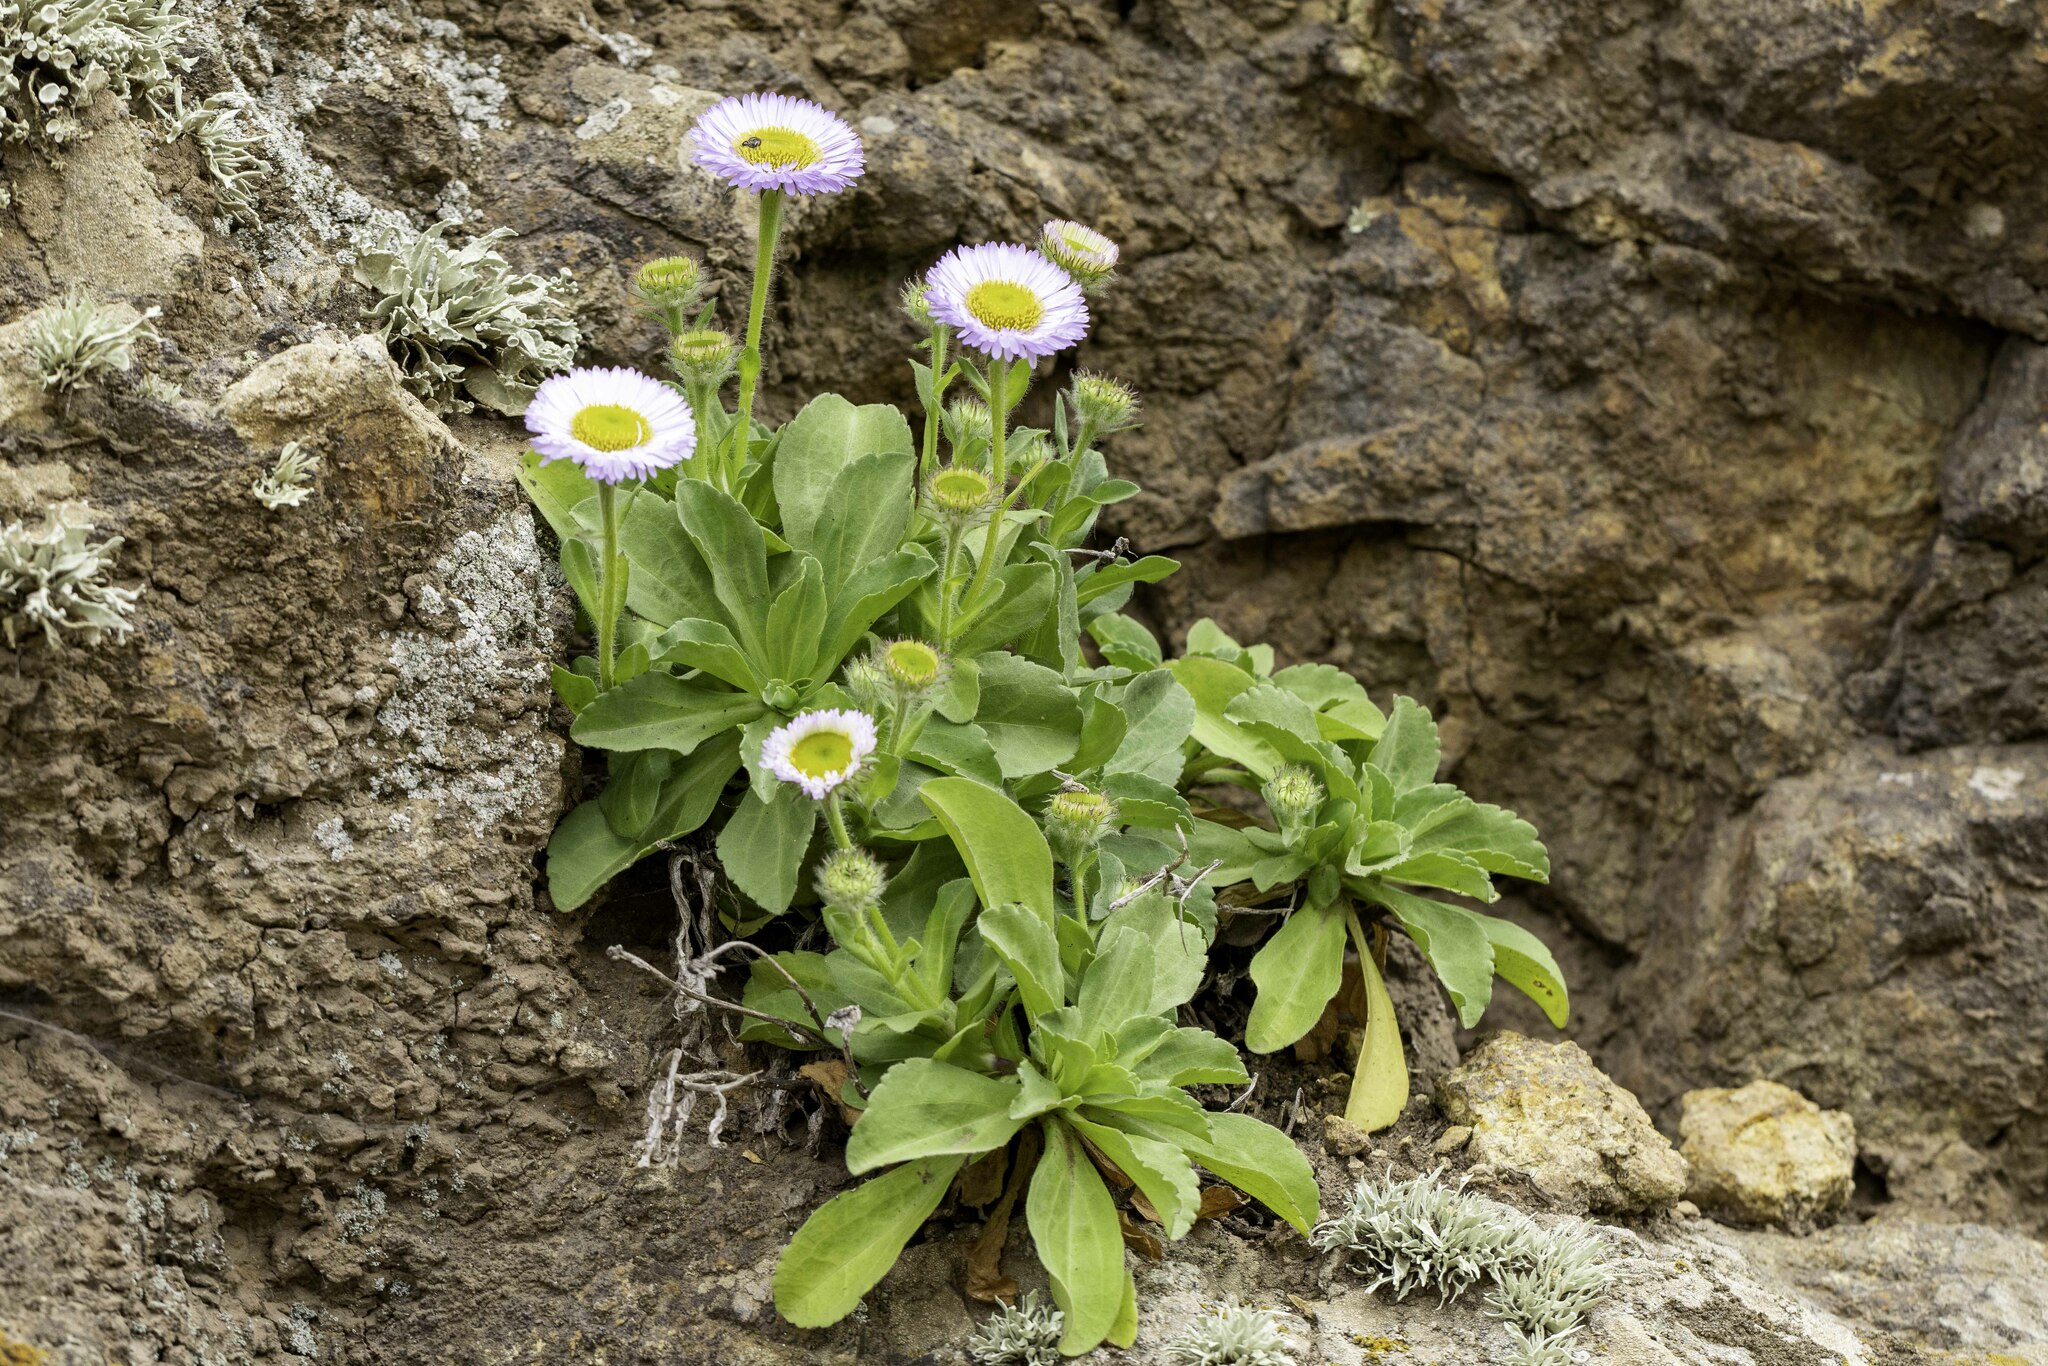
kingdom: Plantae
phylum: Tracheophyta
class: Magnoliopsida
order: Asterales
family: Asteraceae
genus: Erigeron
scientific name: Erigeron glaucus
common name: Seaside daisy
